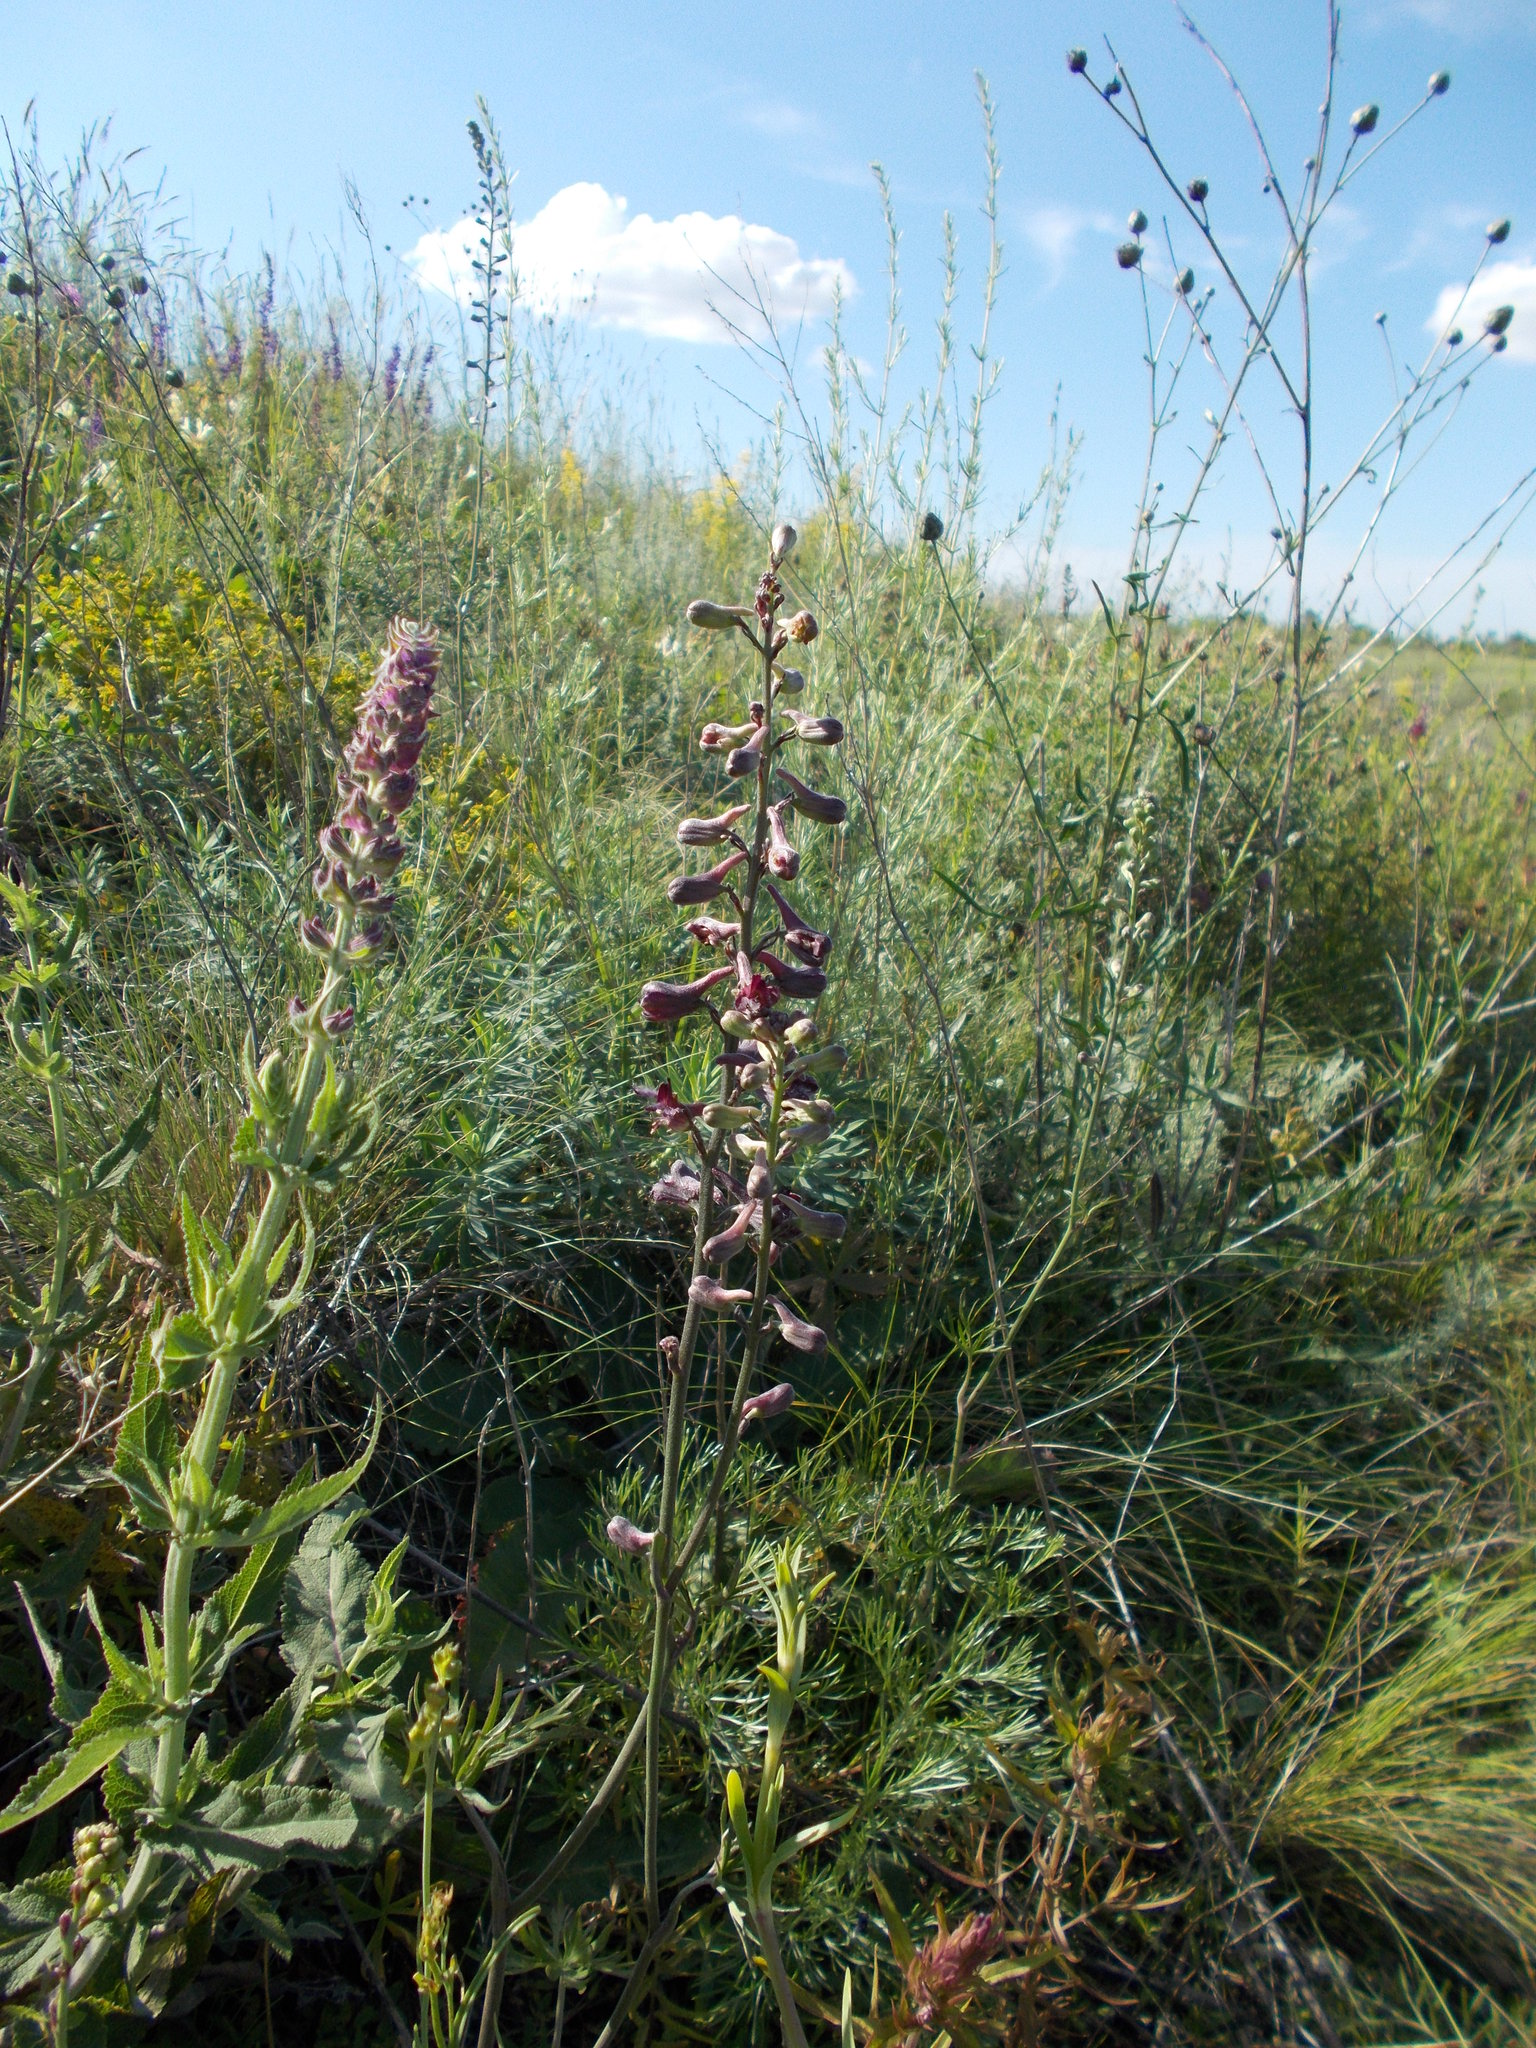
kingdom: Plantae
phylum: Tracheophyta
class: Magnoliopsida
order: Ranunculales
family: Ranunculaceae
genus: Delphinium
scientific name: Delphinium puniceum
